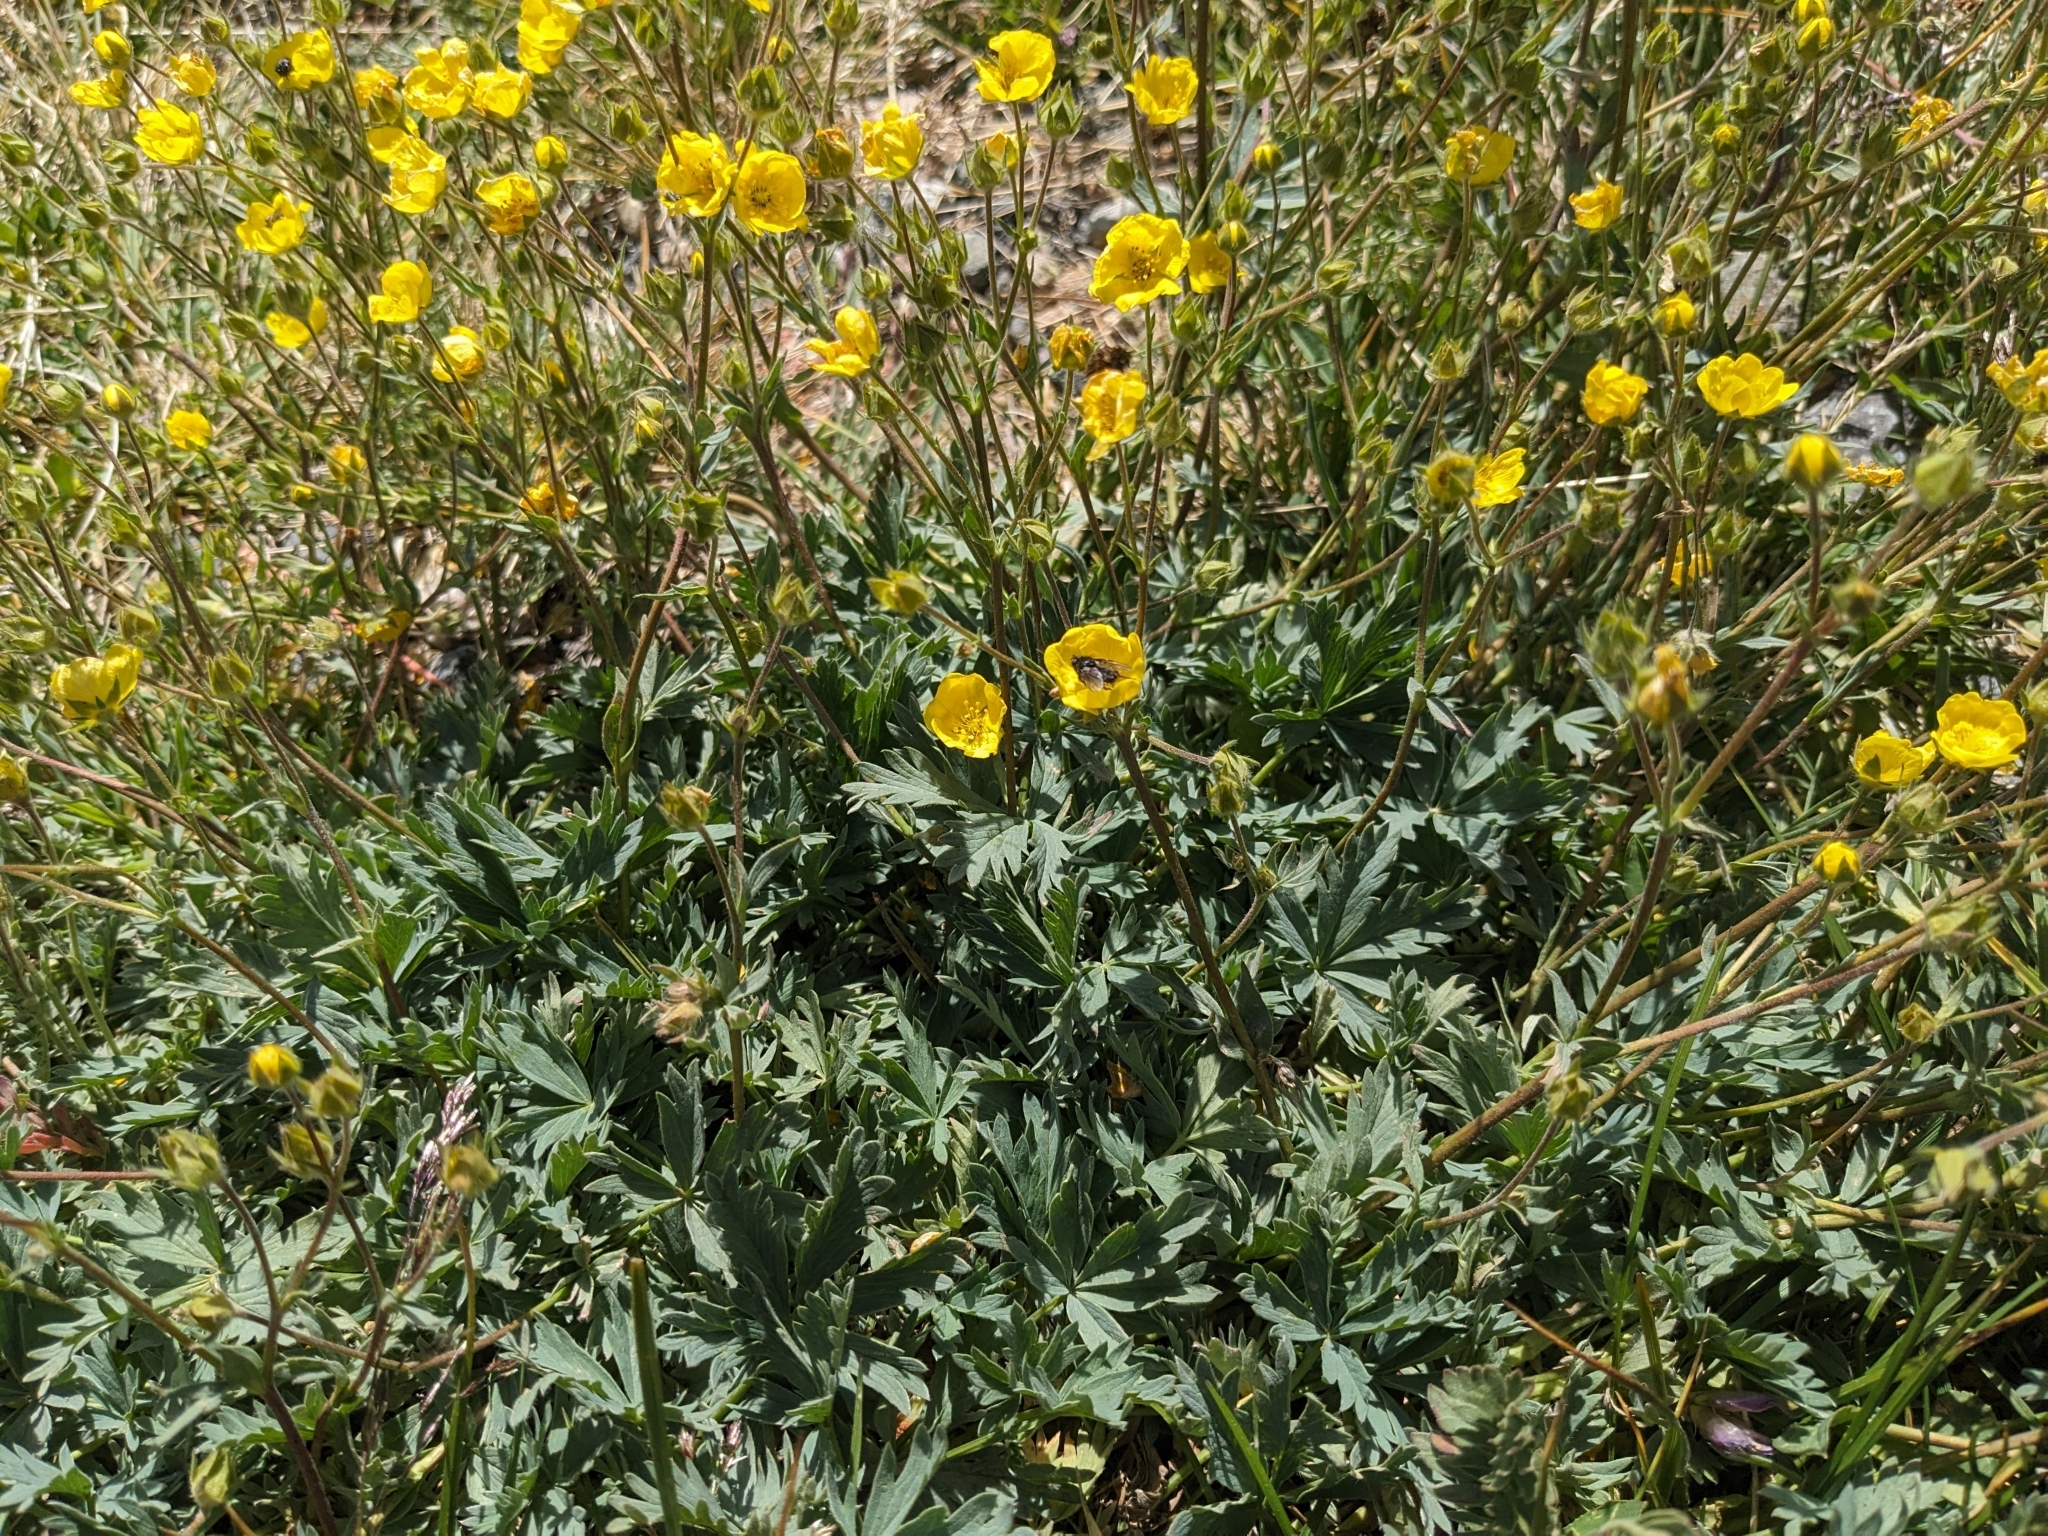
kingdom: Plantae
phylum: Tracheophyta
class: Magnoliopsida
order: Rosales
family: Rosaceae
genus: Potentilla
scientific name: Potentilla glaucophylla
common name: Blue-leaved cinquefoil
